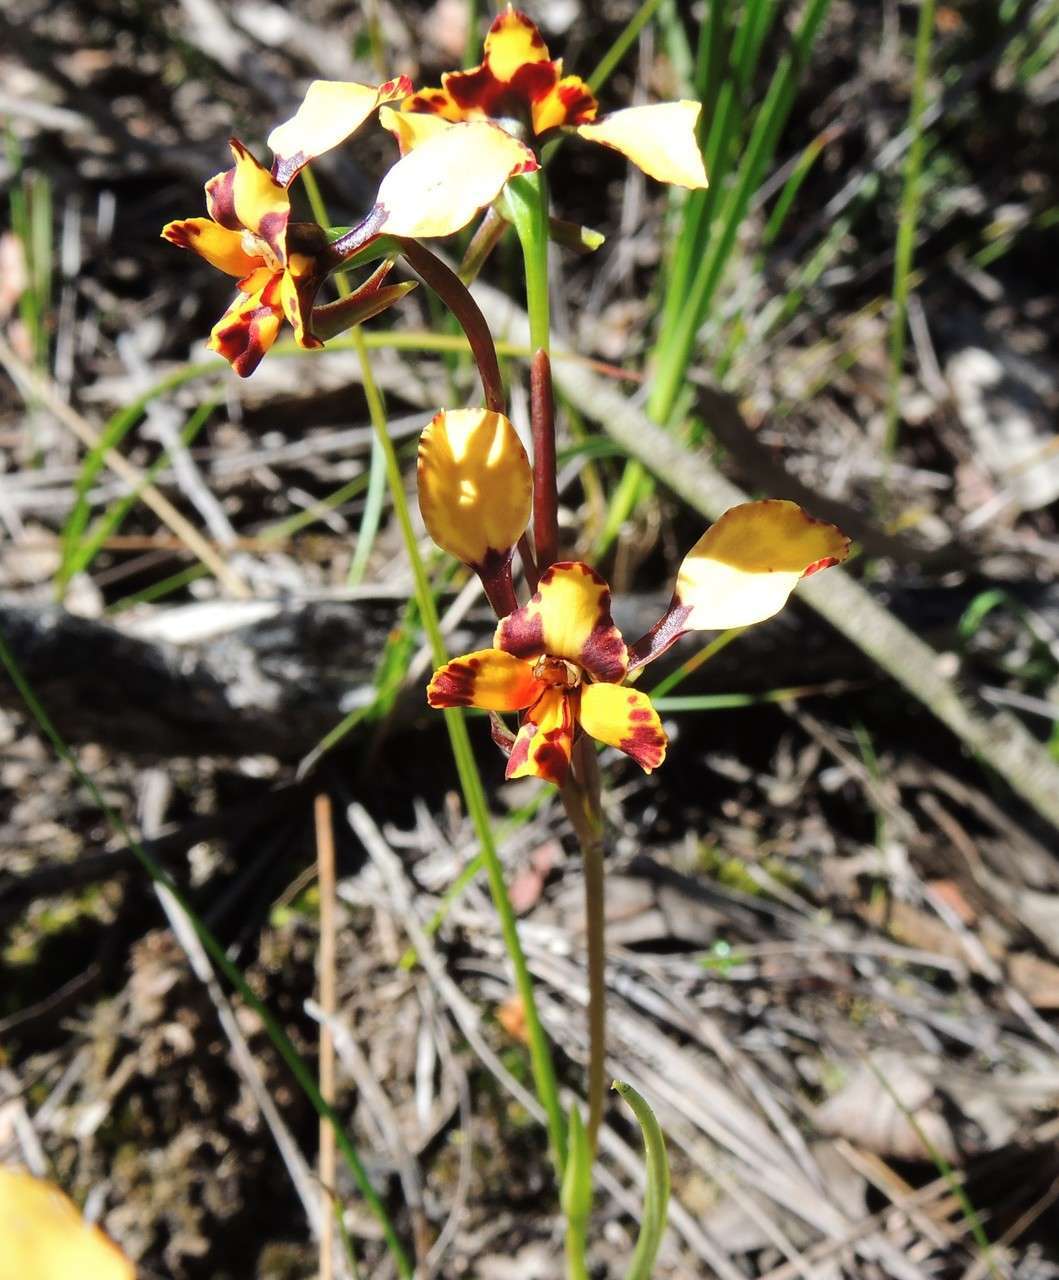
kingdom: Plantae
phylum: Tracheophyta
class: Liliopsida
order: Asparagales
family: Orchidaceae
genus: Diuris
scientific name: Diuris pardina
